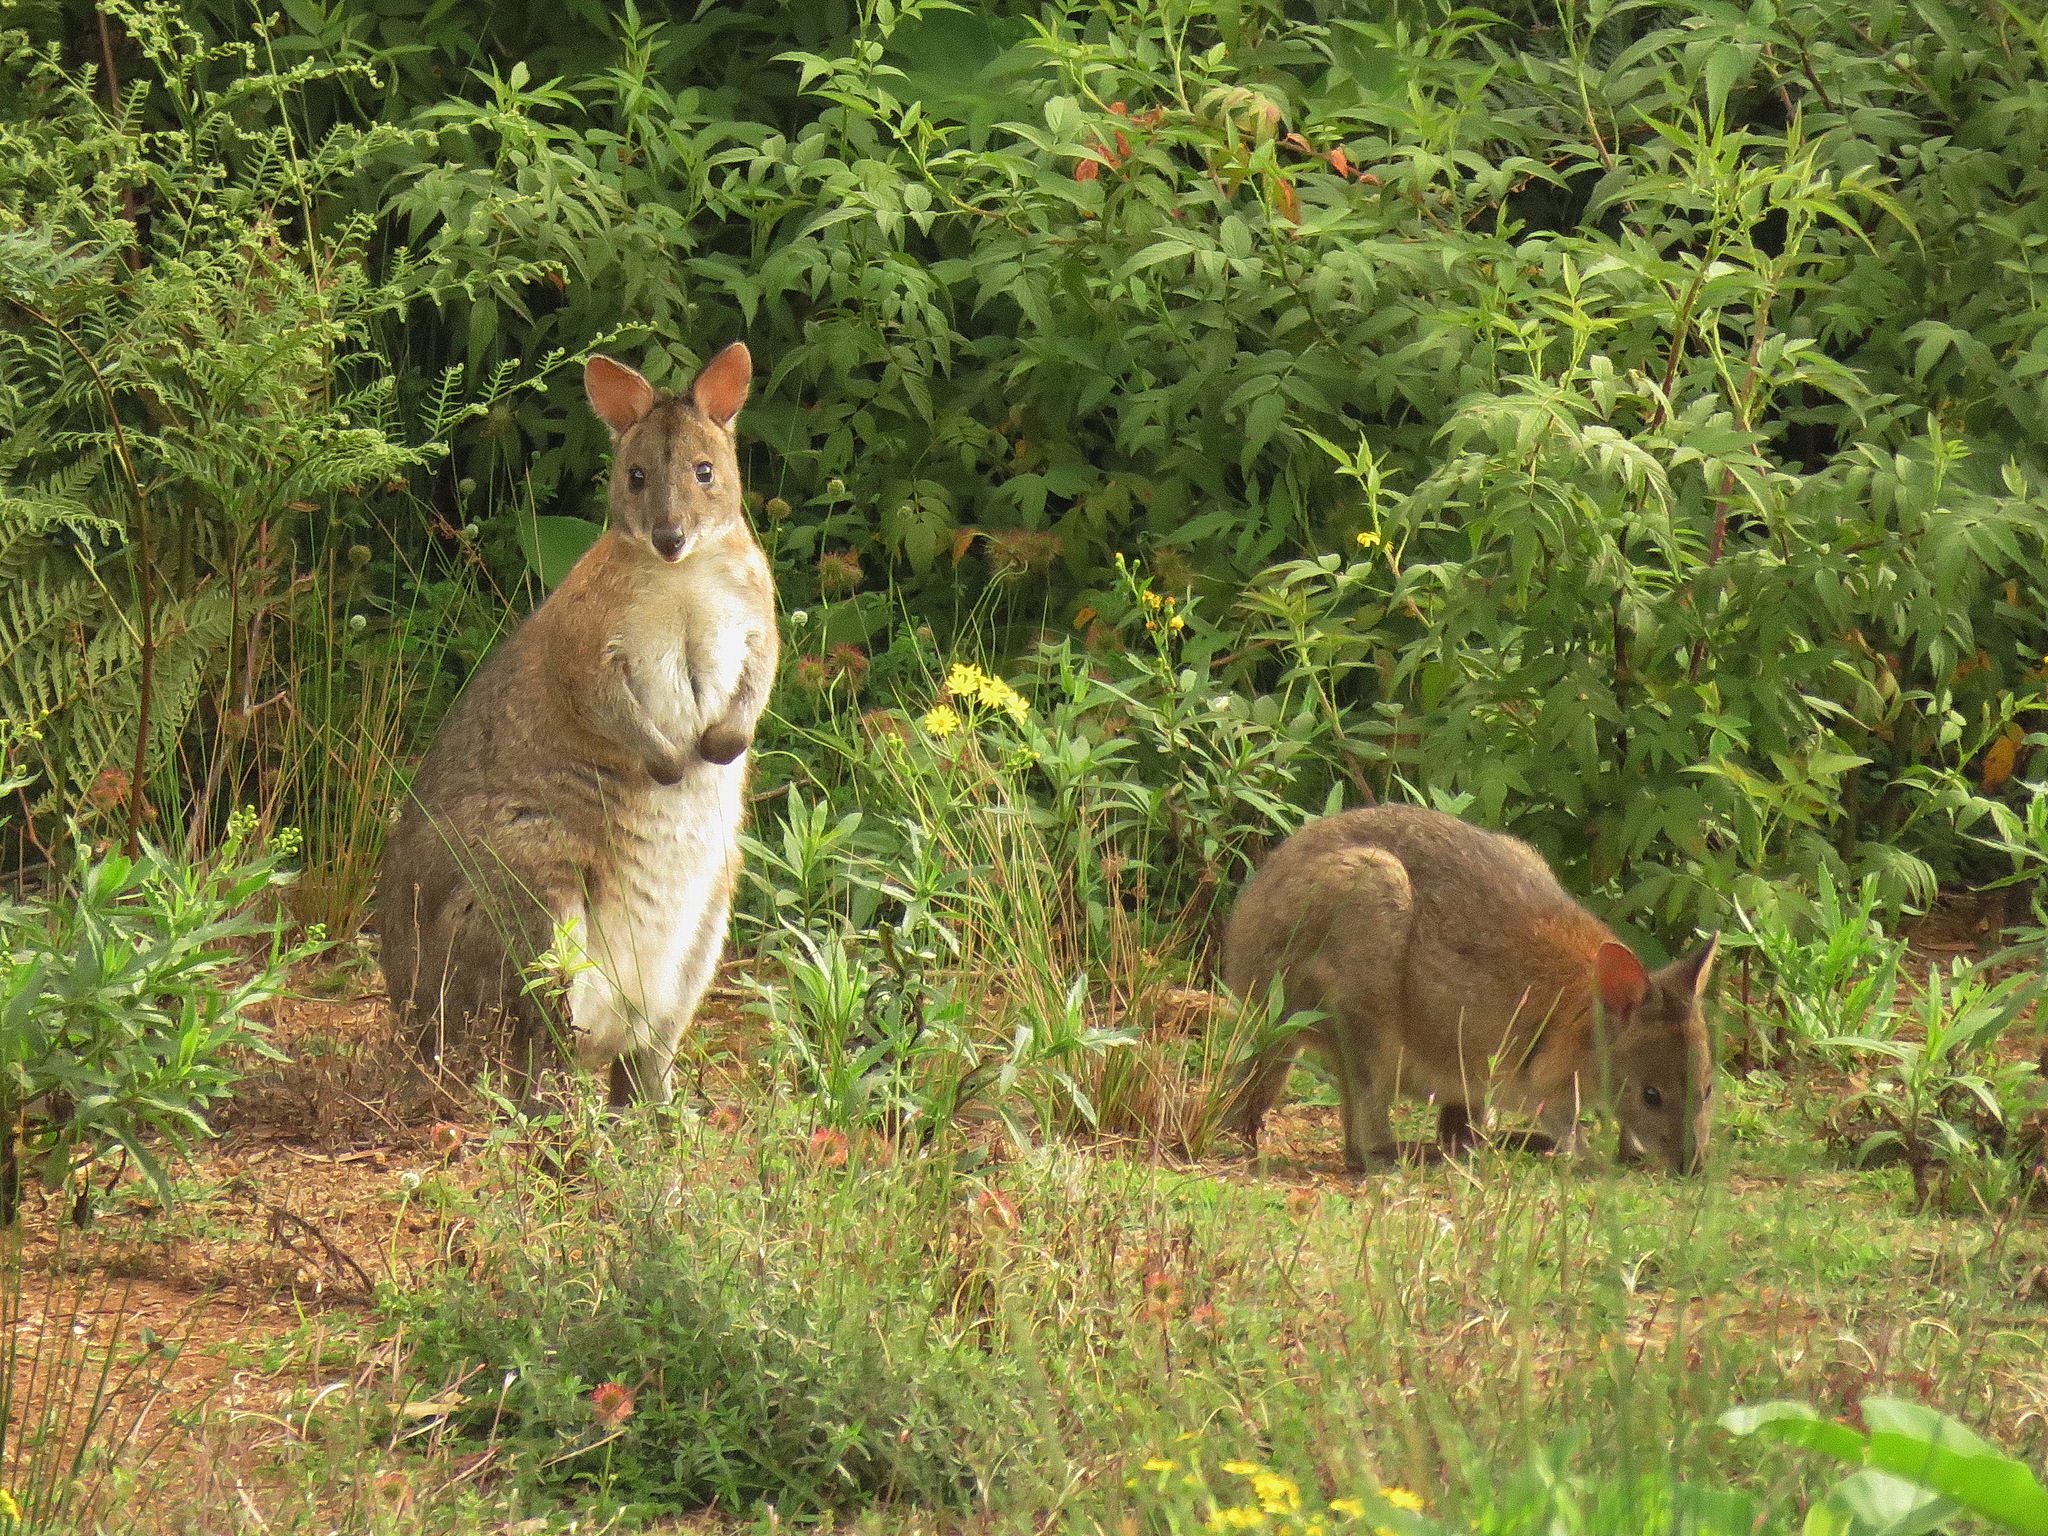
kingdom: Animalia
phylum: Chordata
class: Mammalia
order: Diprotodontia
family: Macropodidae
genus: Thylogale
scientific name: Thylogale thetis
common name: Red-necked pademelon
